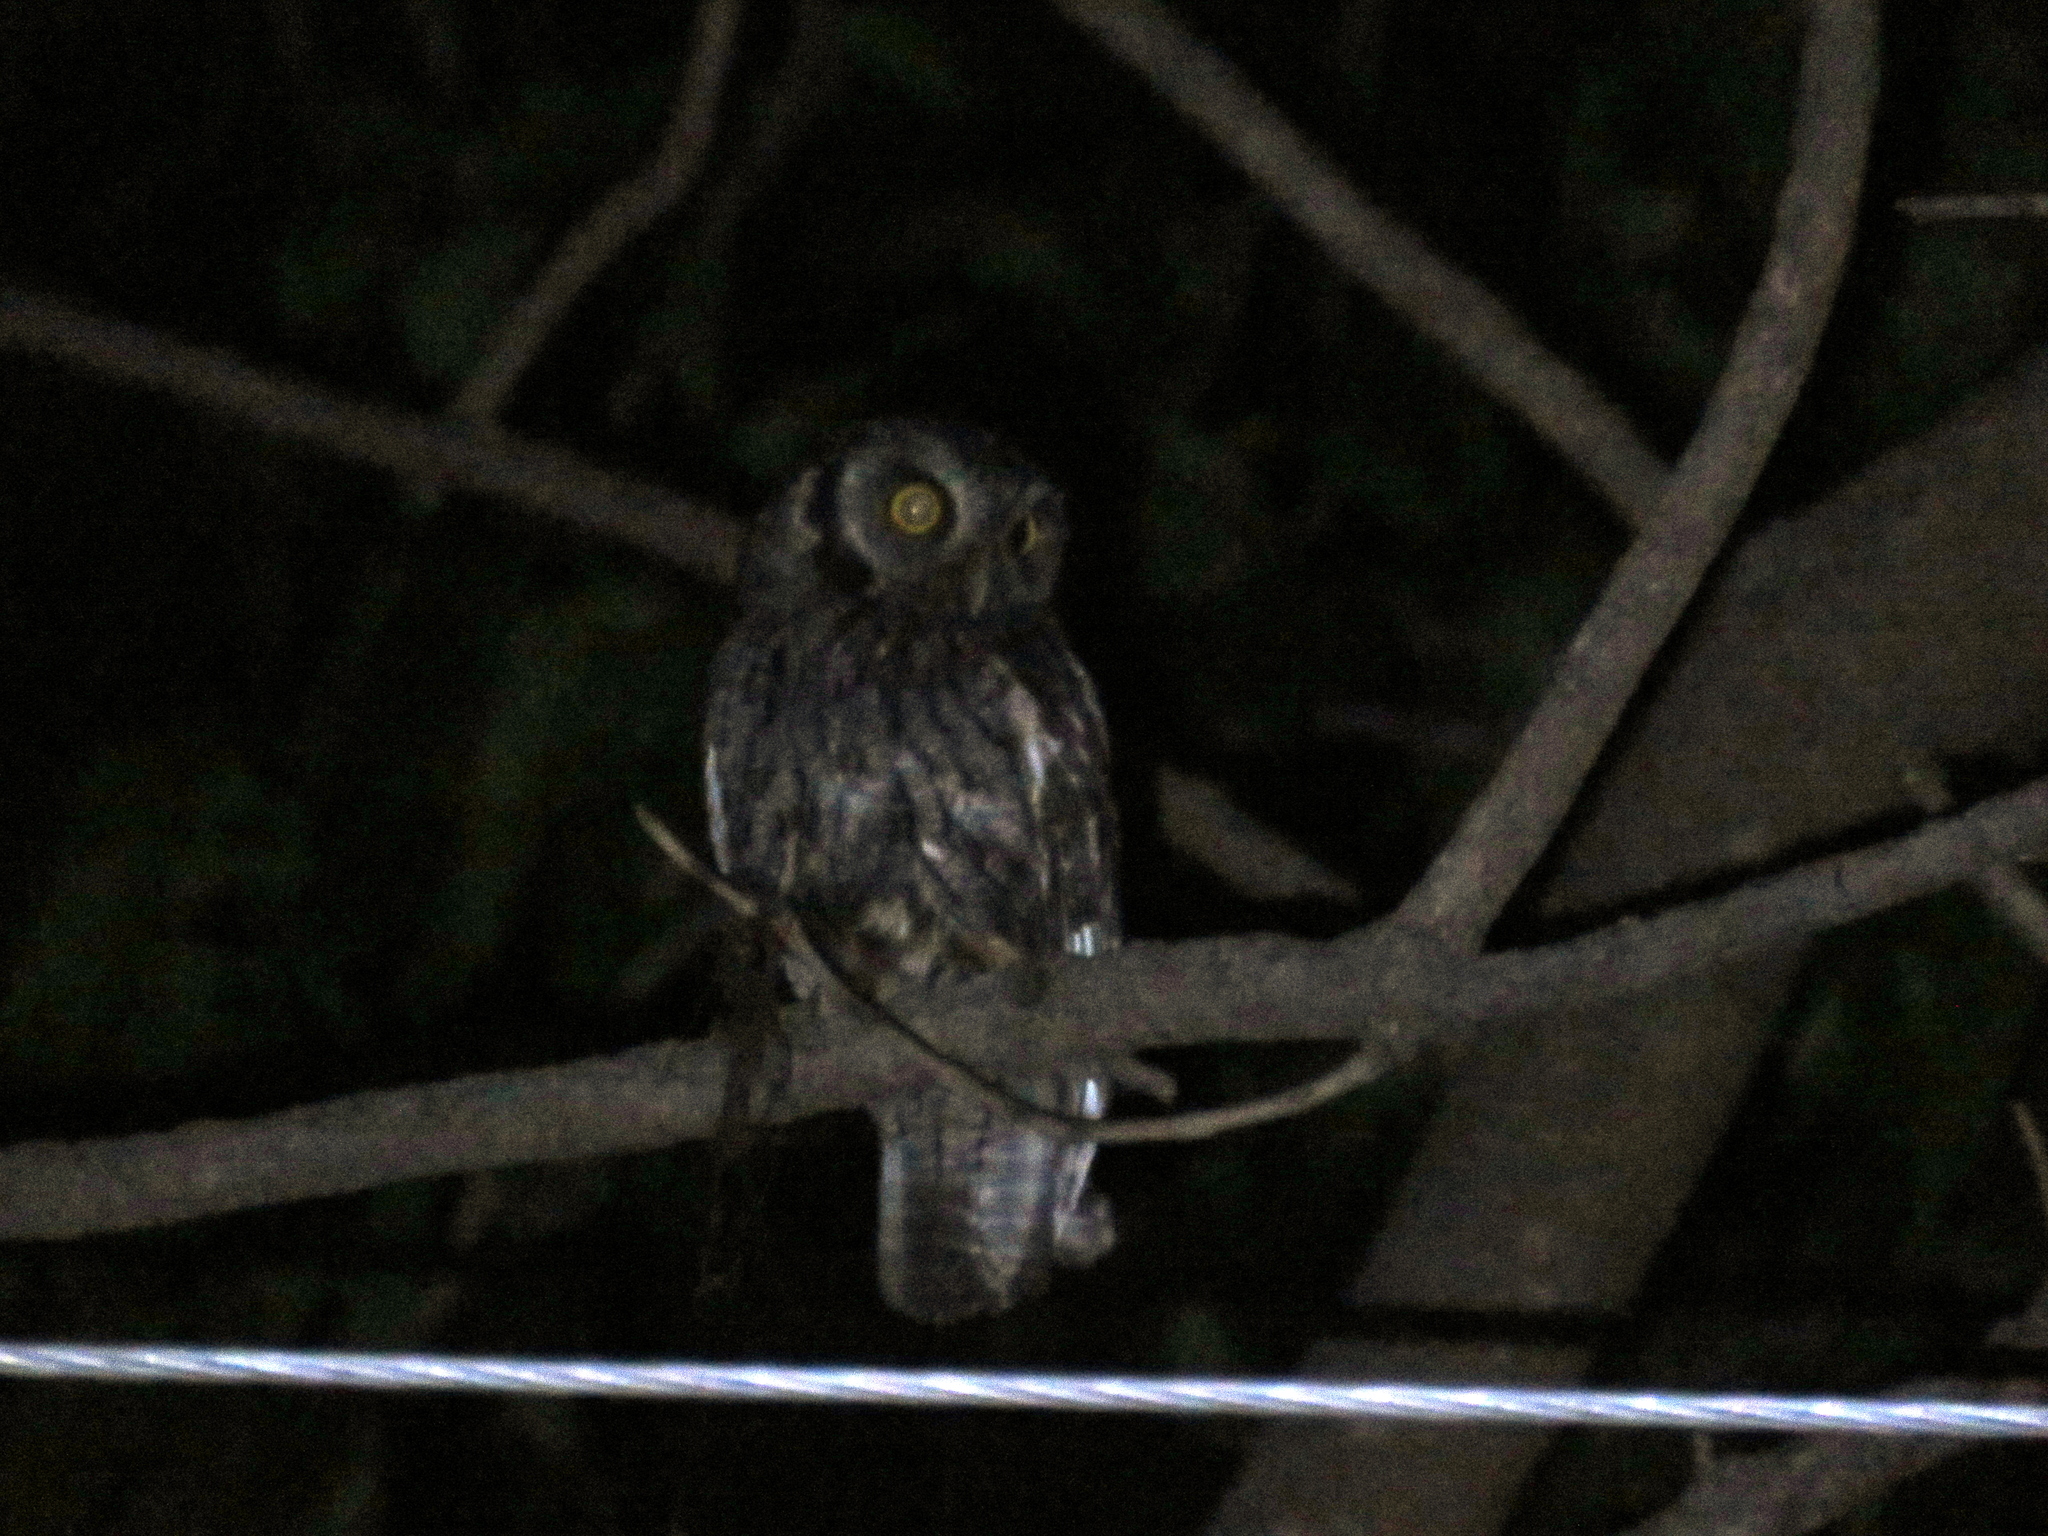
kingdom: Animalia
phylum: Chordata
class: Aves
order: Strigiformes
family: Strigidae
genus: Megascops
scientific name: Megascops choliba
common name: Tropical screech-owl
